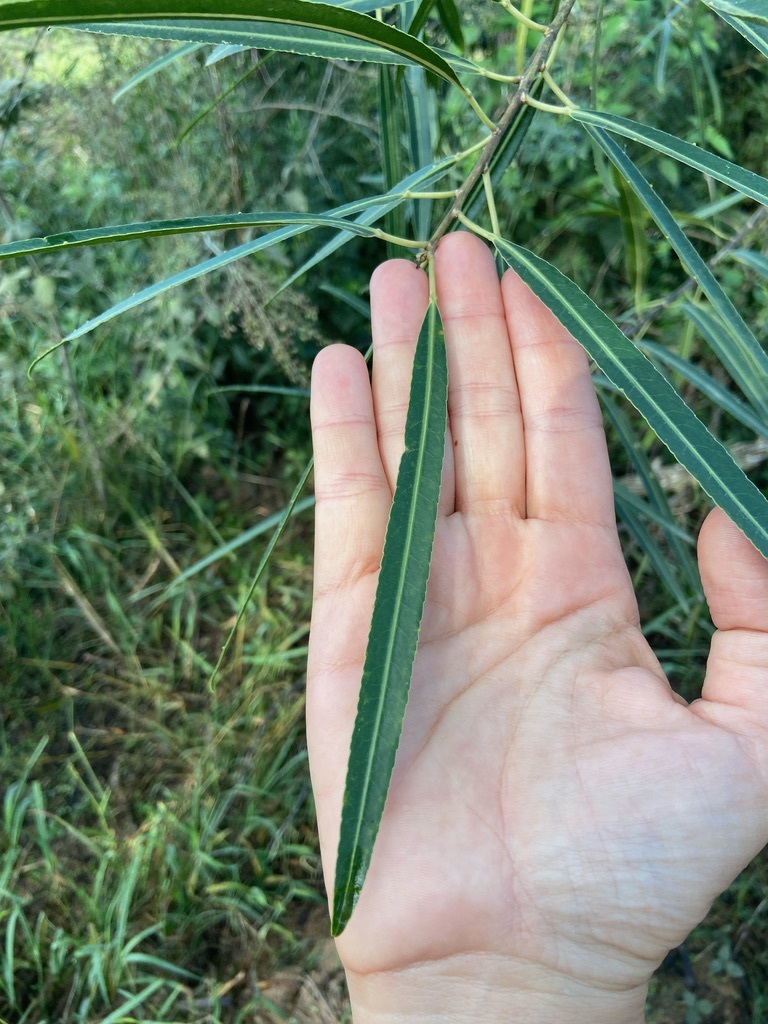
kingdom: Plantae
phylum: Tracheophyta
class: Magnoliopsida
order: Malpighiales
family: Euphorbiaceae
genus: Sapium
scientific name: Sapium haematospermum
